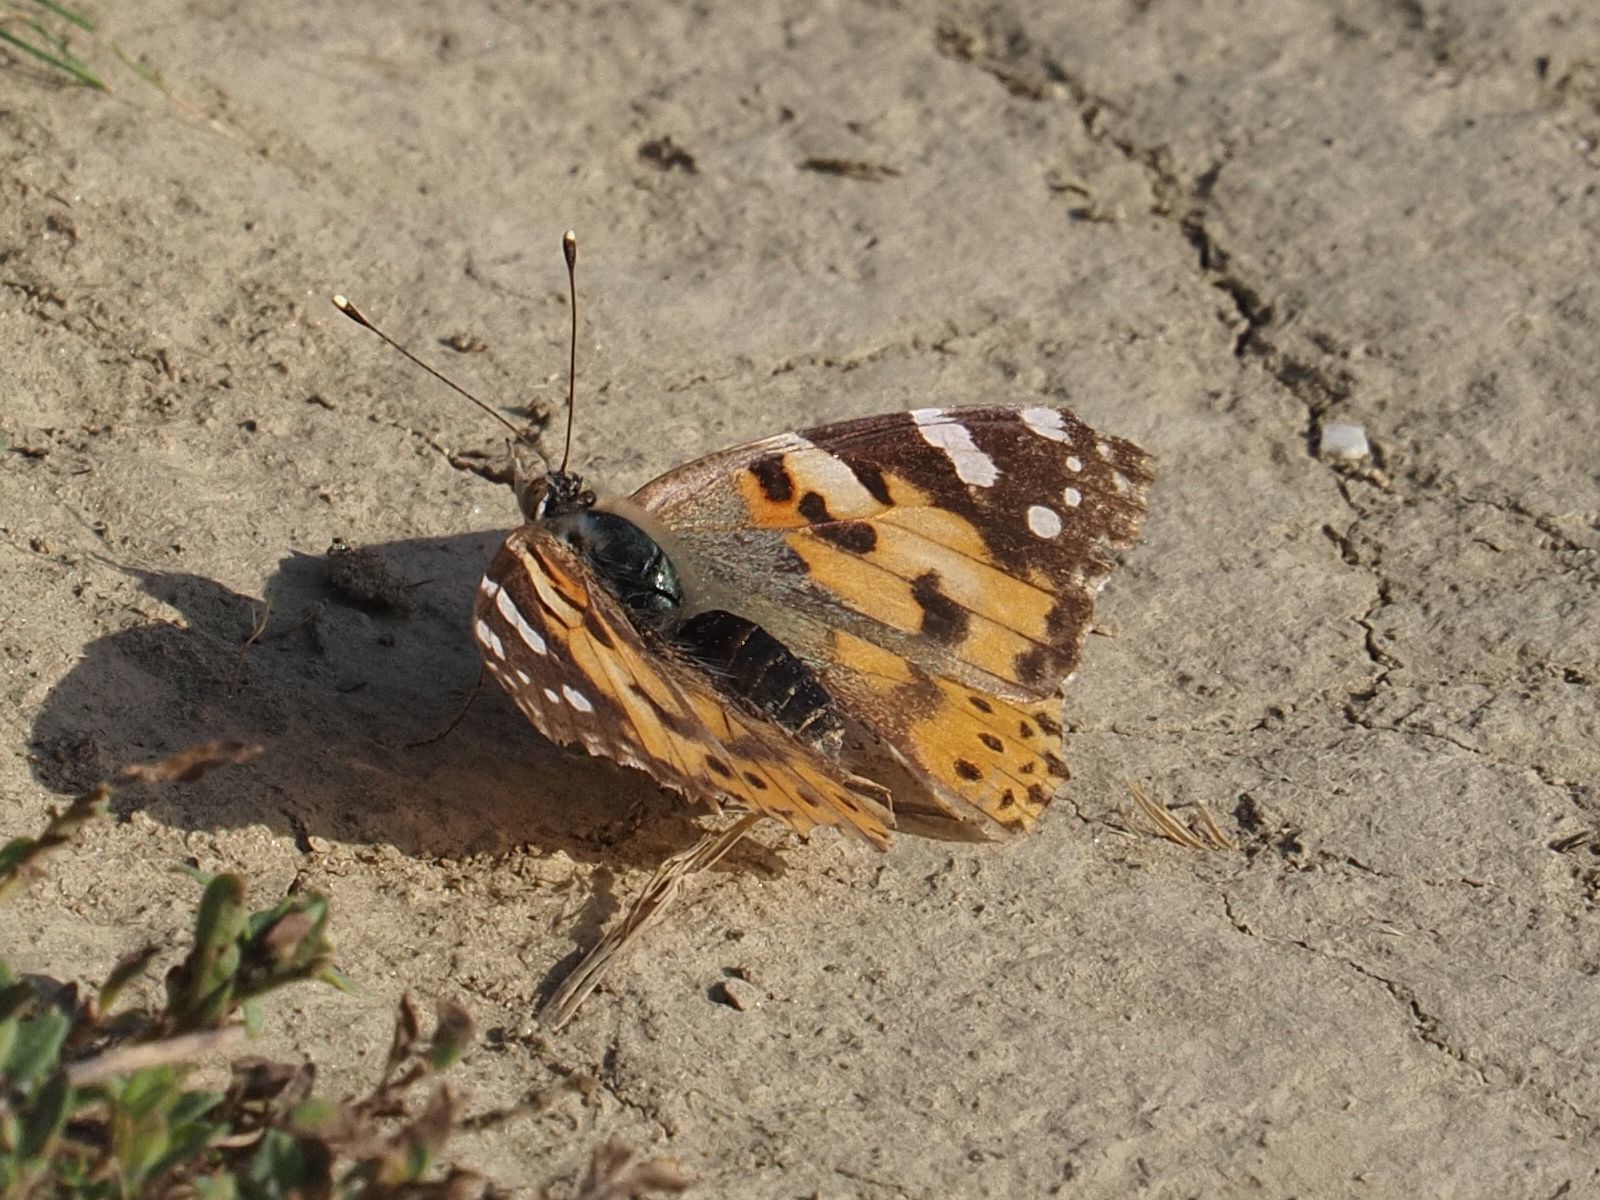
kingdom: Animalia
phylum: Arthropoda
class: Insecta
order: Lepidoptera
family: Nymphalidae
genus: Vanessa
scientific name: Vanessa cardui
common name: Painted lady
